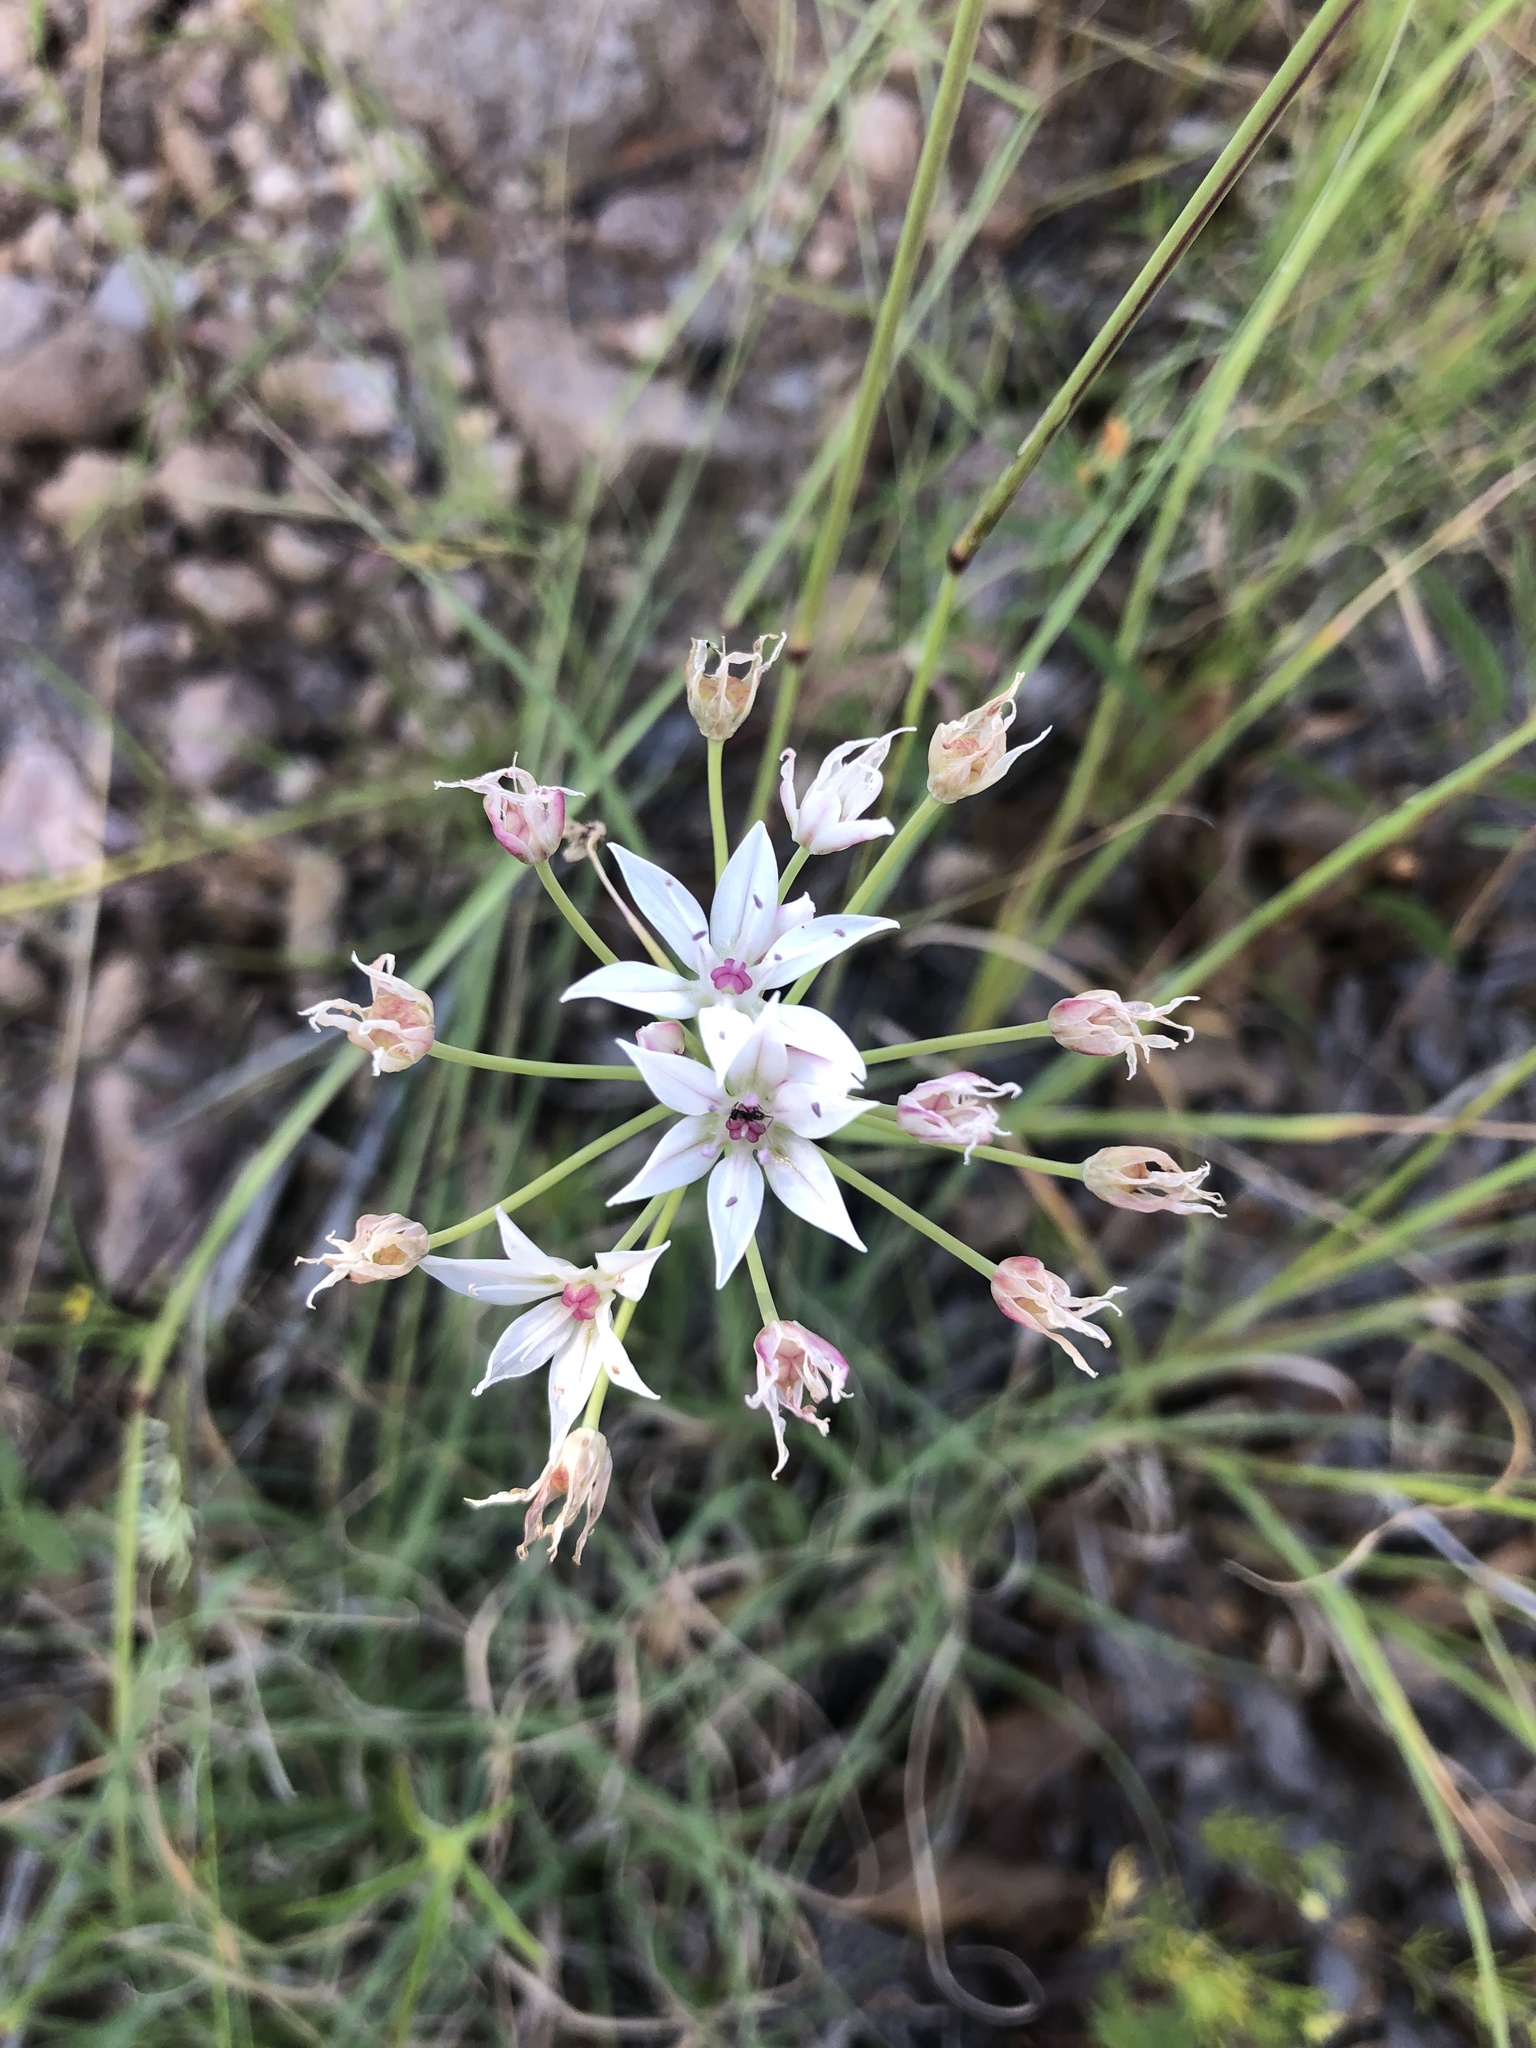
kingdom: Plantae
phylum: Tracheophyta
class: Liliopsida
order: Asparagales
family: Amaryllidaceae
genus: Allium
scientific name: Allium rhizomatum
